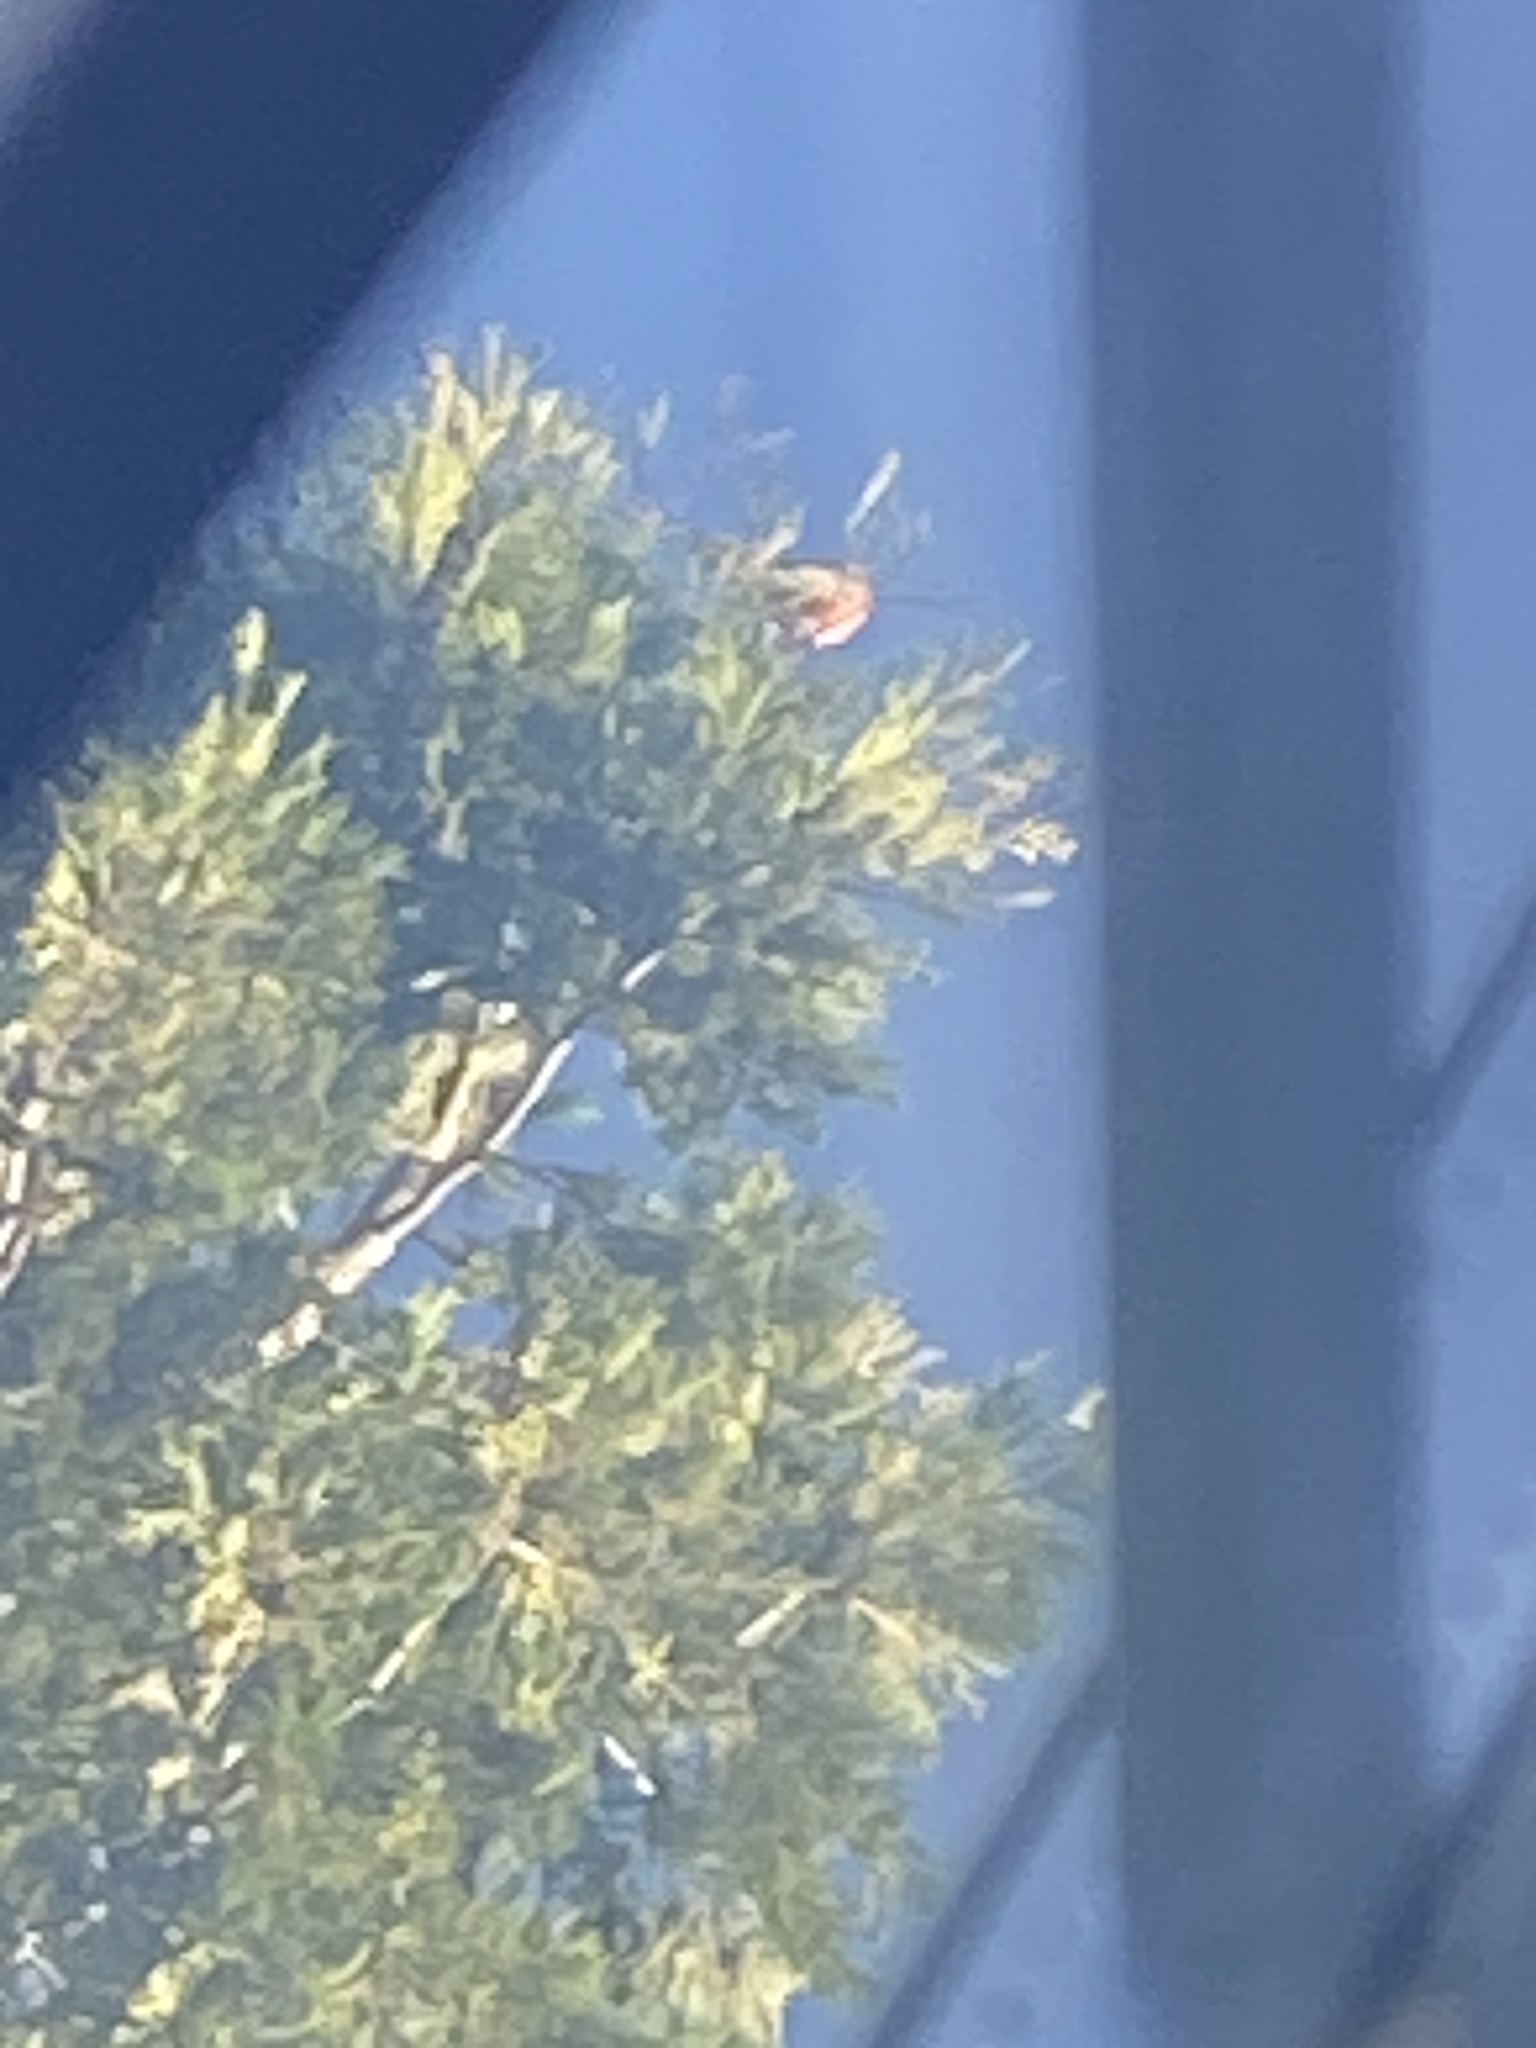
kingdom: Animalia
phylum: Chordata
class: Aves
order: Passeriformes
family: Turdidae
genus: Turdus
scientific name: Turdus migratorius
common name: American robin
